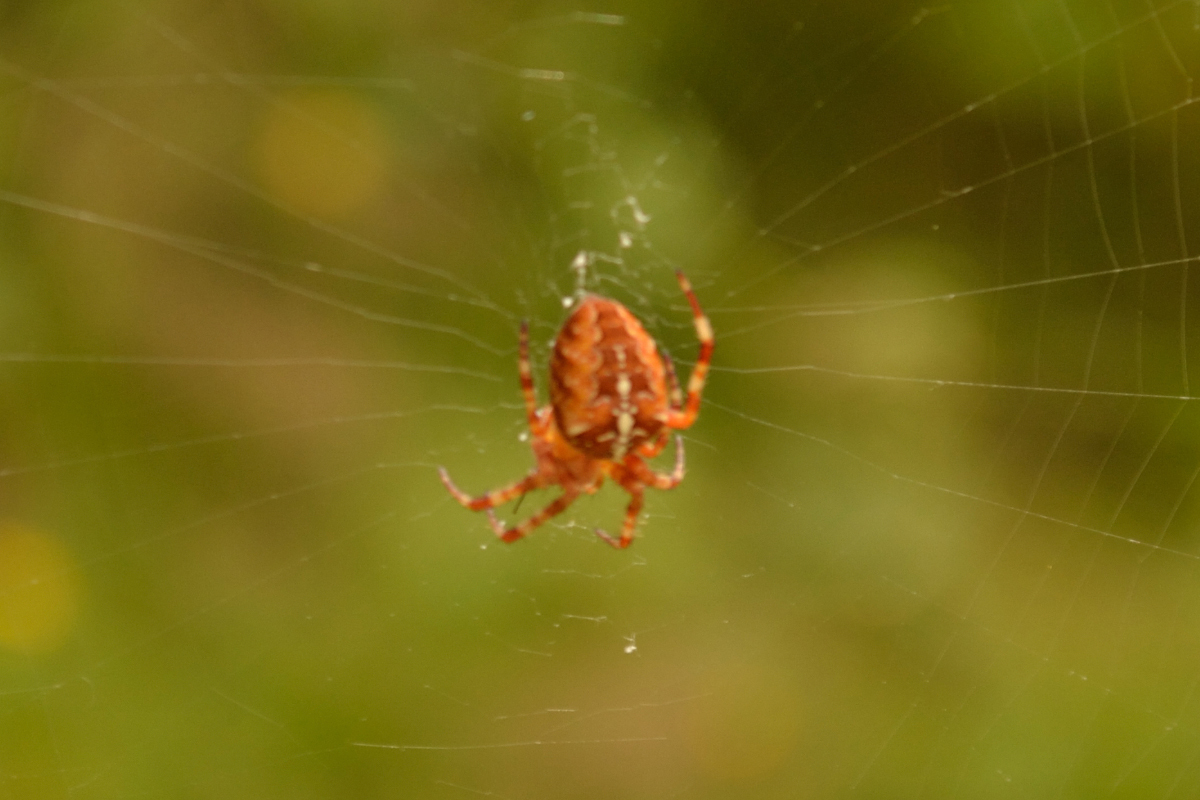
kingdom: Animalia
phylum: Arthropoda
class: Arachnida
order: Araneae
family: Araneidae
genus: Araneus
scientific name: Araneus diadematus
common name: Cross orbweaver
